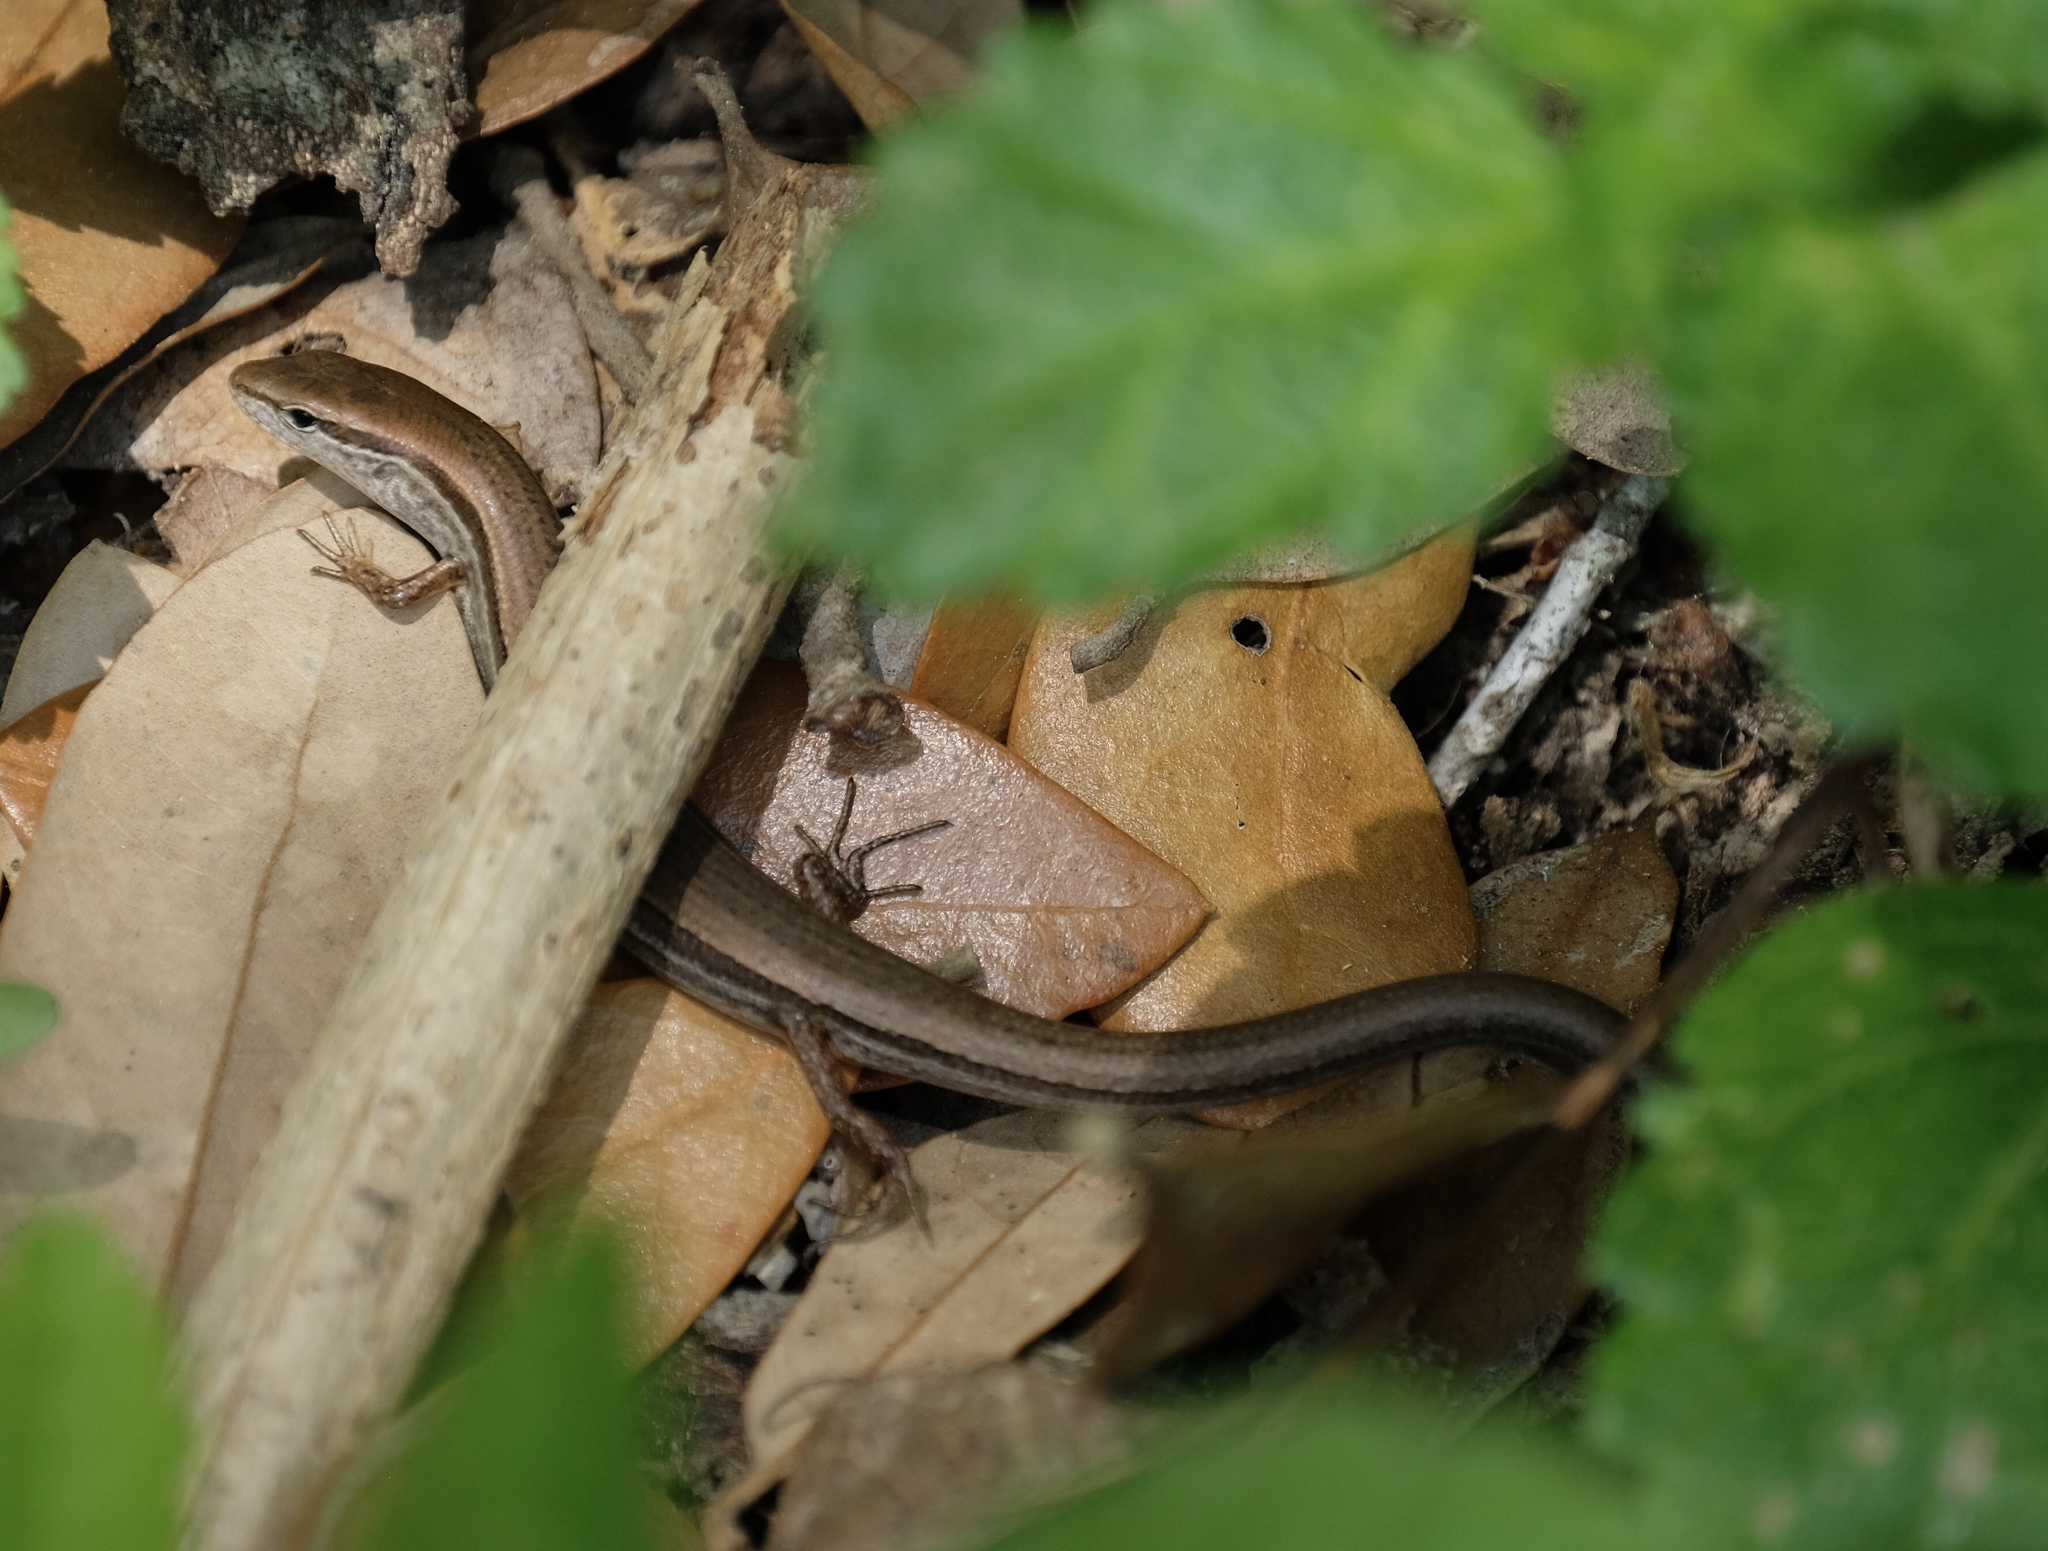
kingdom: Animalia
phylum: Chordata
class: Squamata
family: Scincidae
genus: Scincella
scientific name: Scincella lateralis
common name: Ground skink
